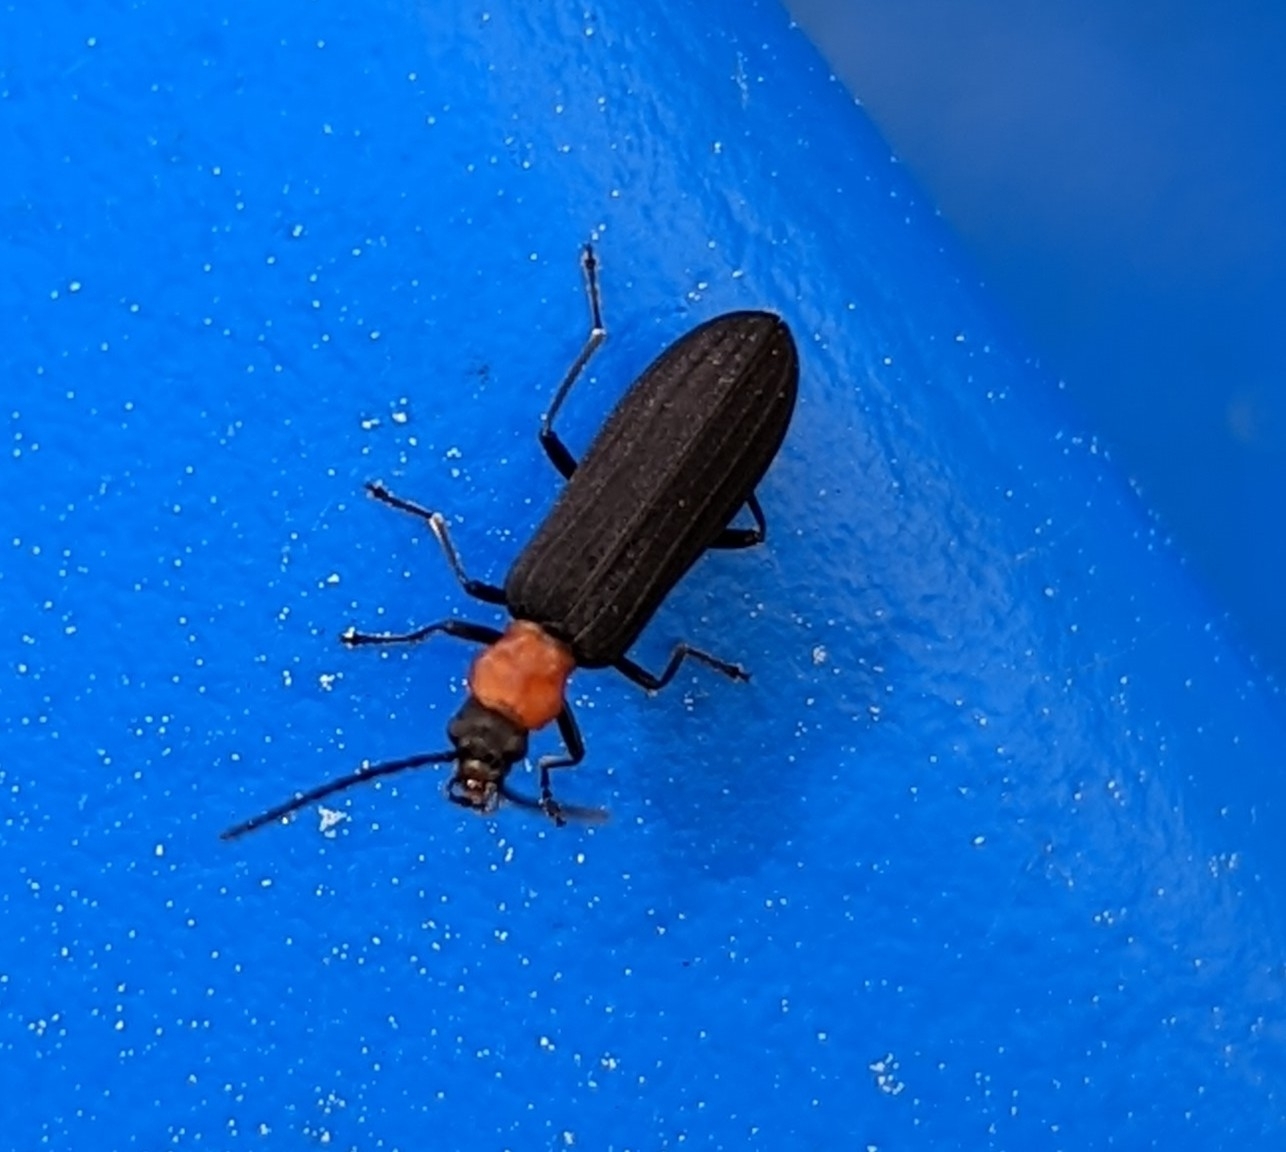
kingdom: Animalia
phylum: Arthropoda
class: Insecta
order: Coleoptera
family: Oedemeridae
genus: Ischnomera
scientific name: Ischnomera
